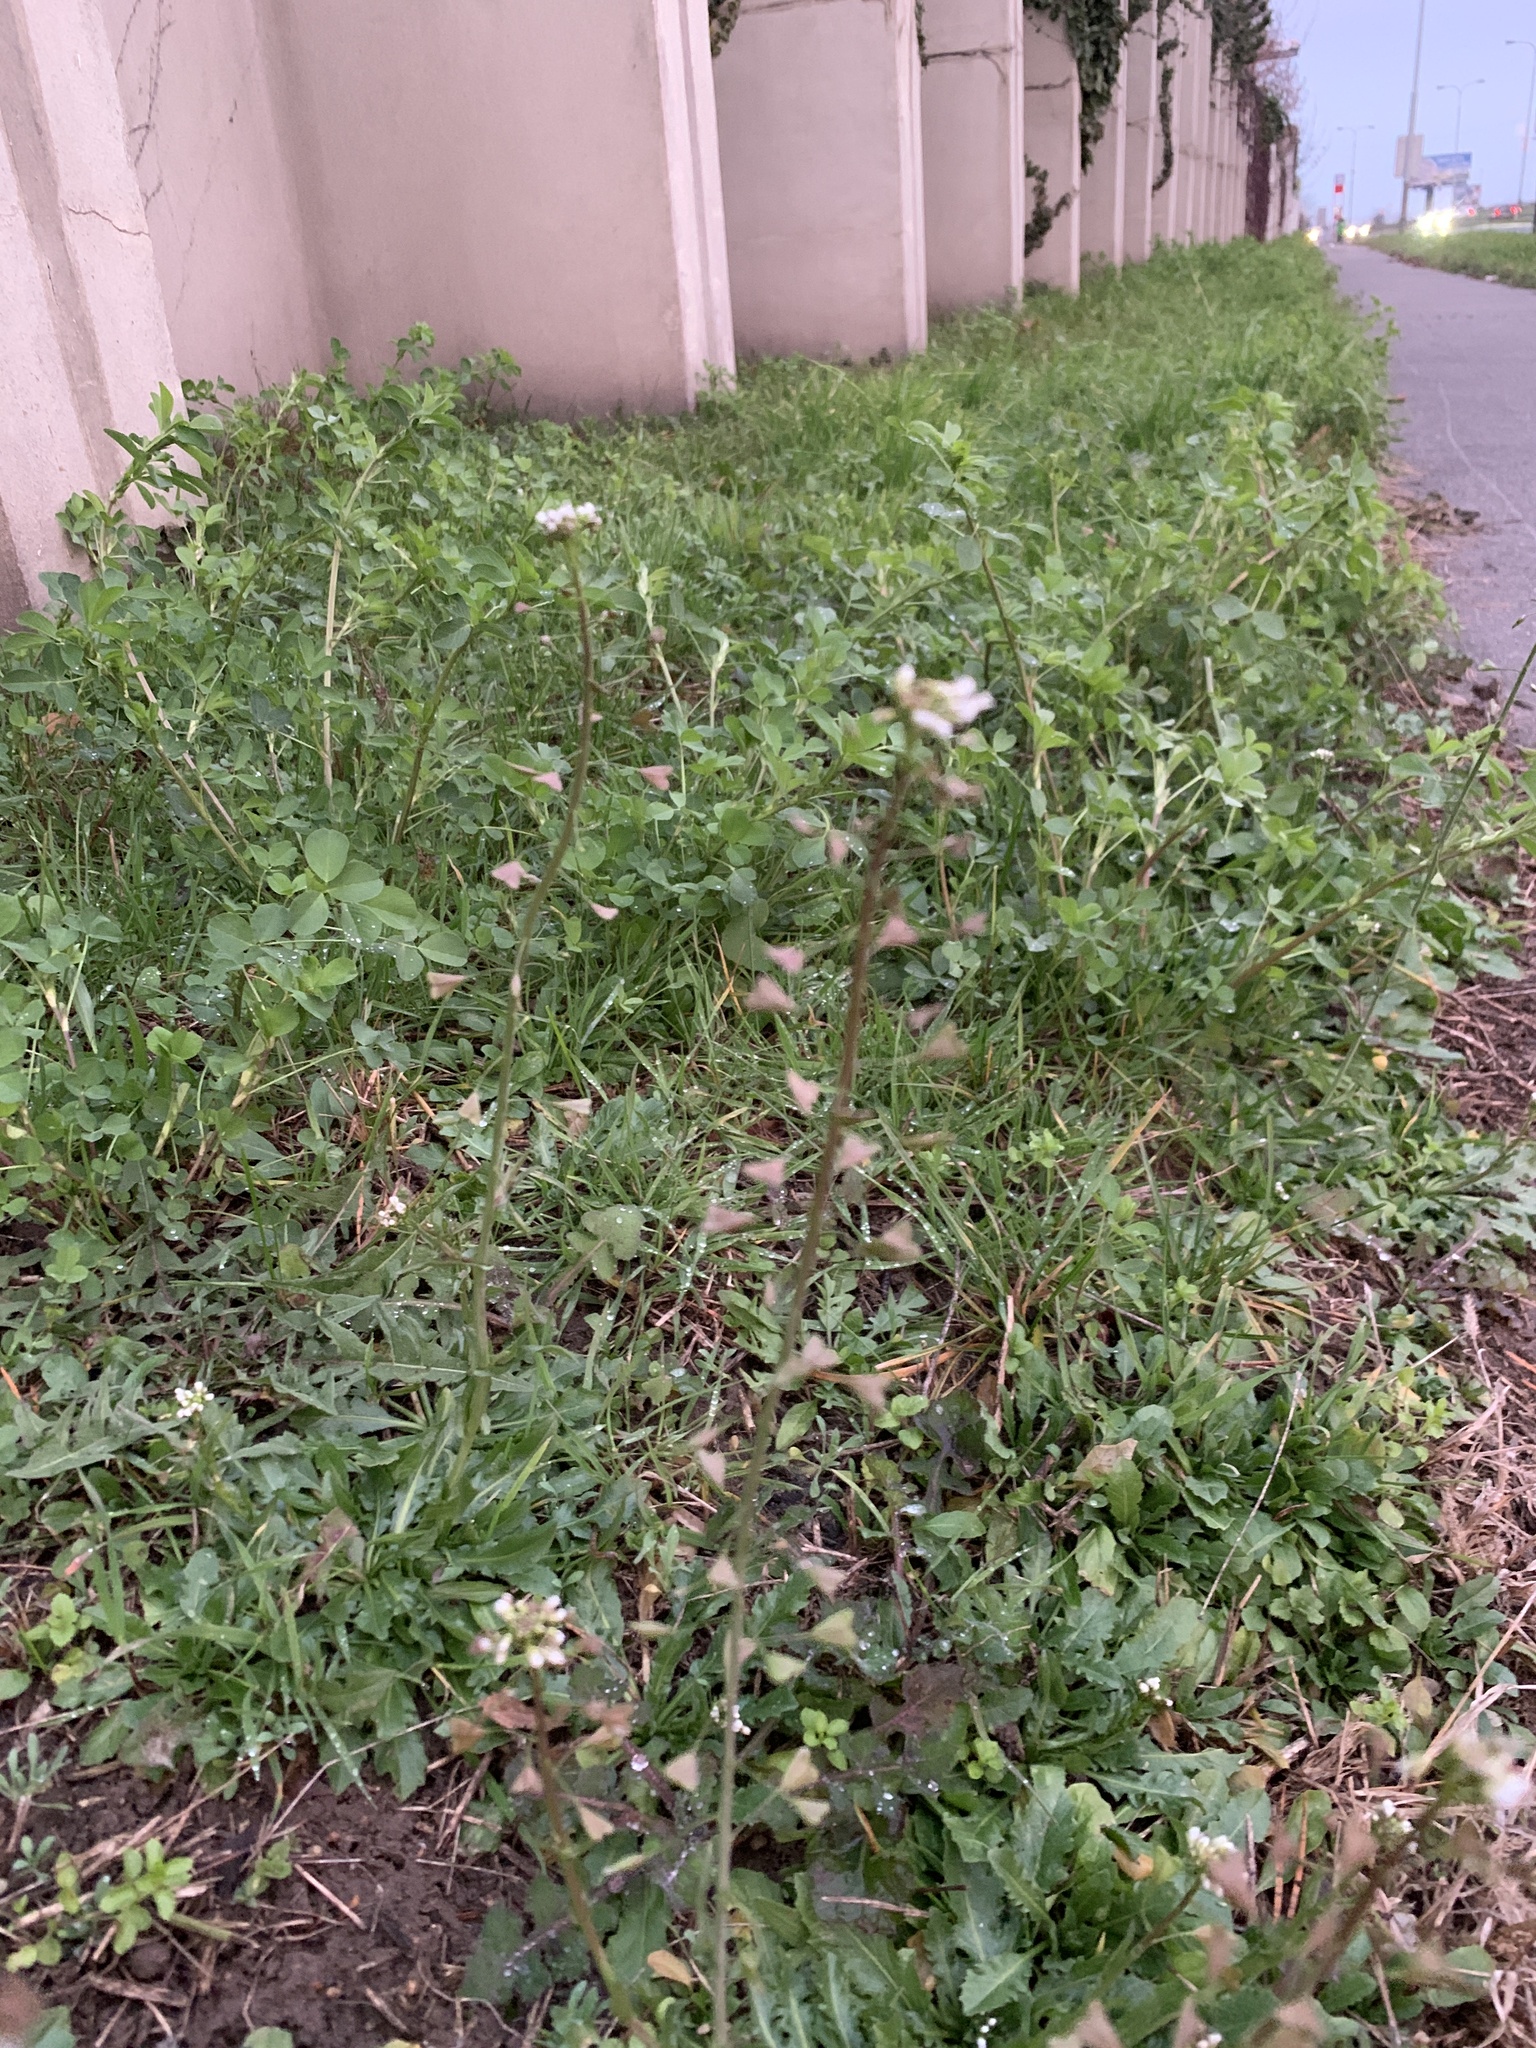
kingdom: Plantae
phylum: Tracheophyta
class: Magnoliopsida
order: Brassicales
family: Brassicaceae
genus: Capsella
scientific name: Capsella bursa-pastoris
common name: Shepherd's purse
